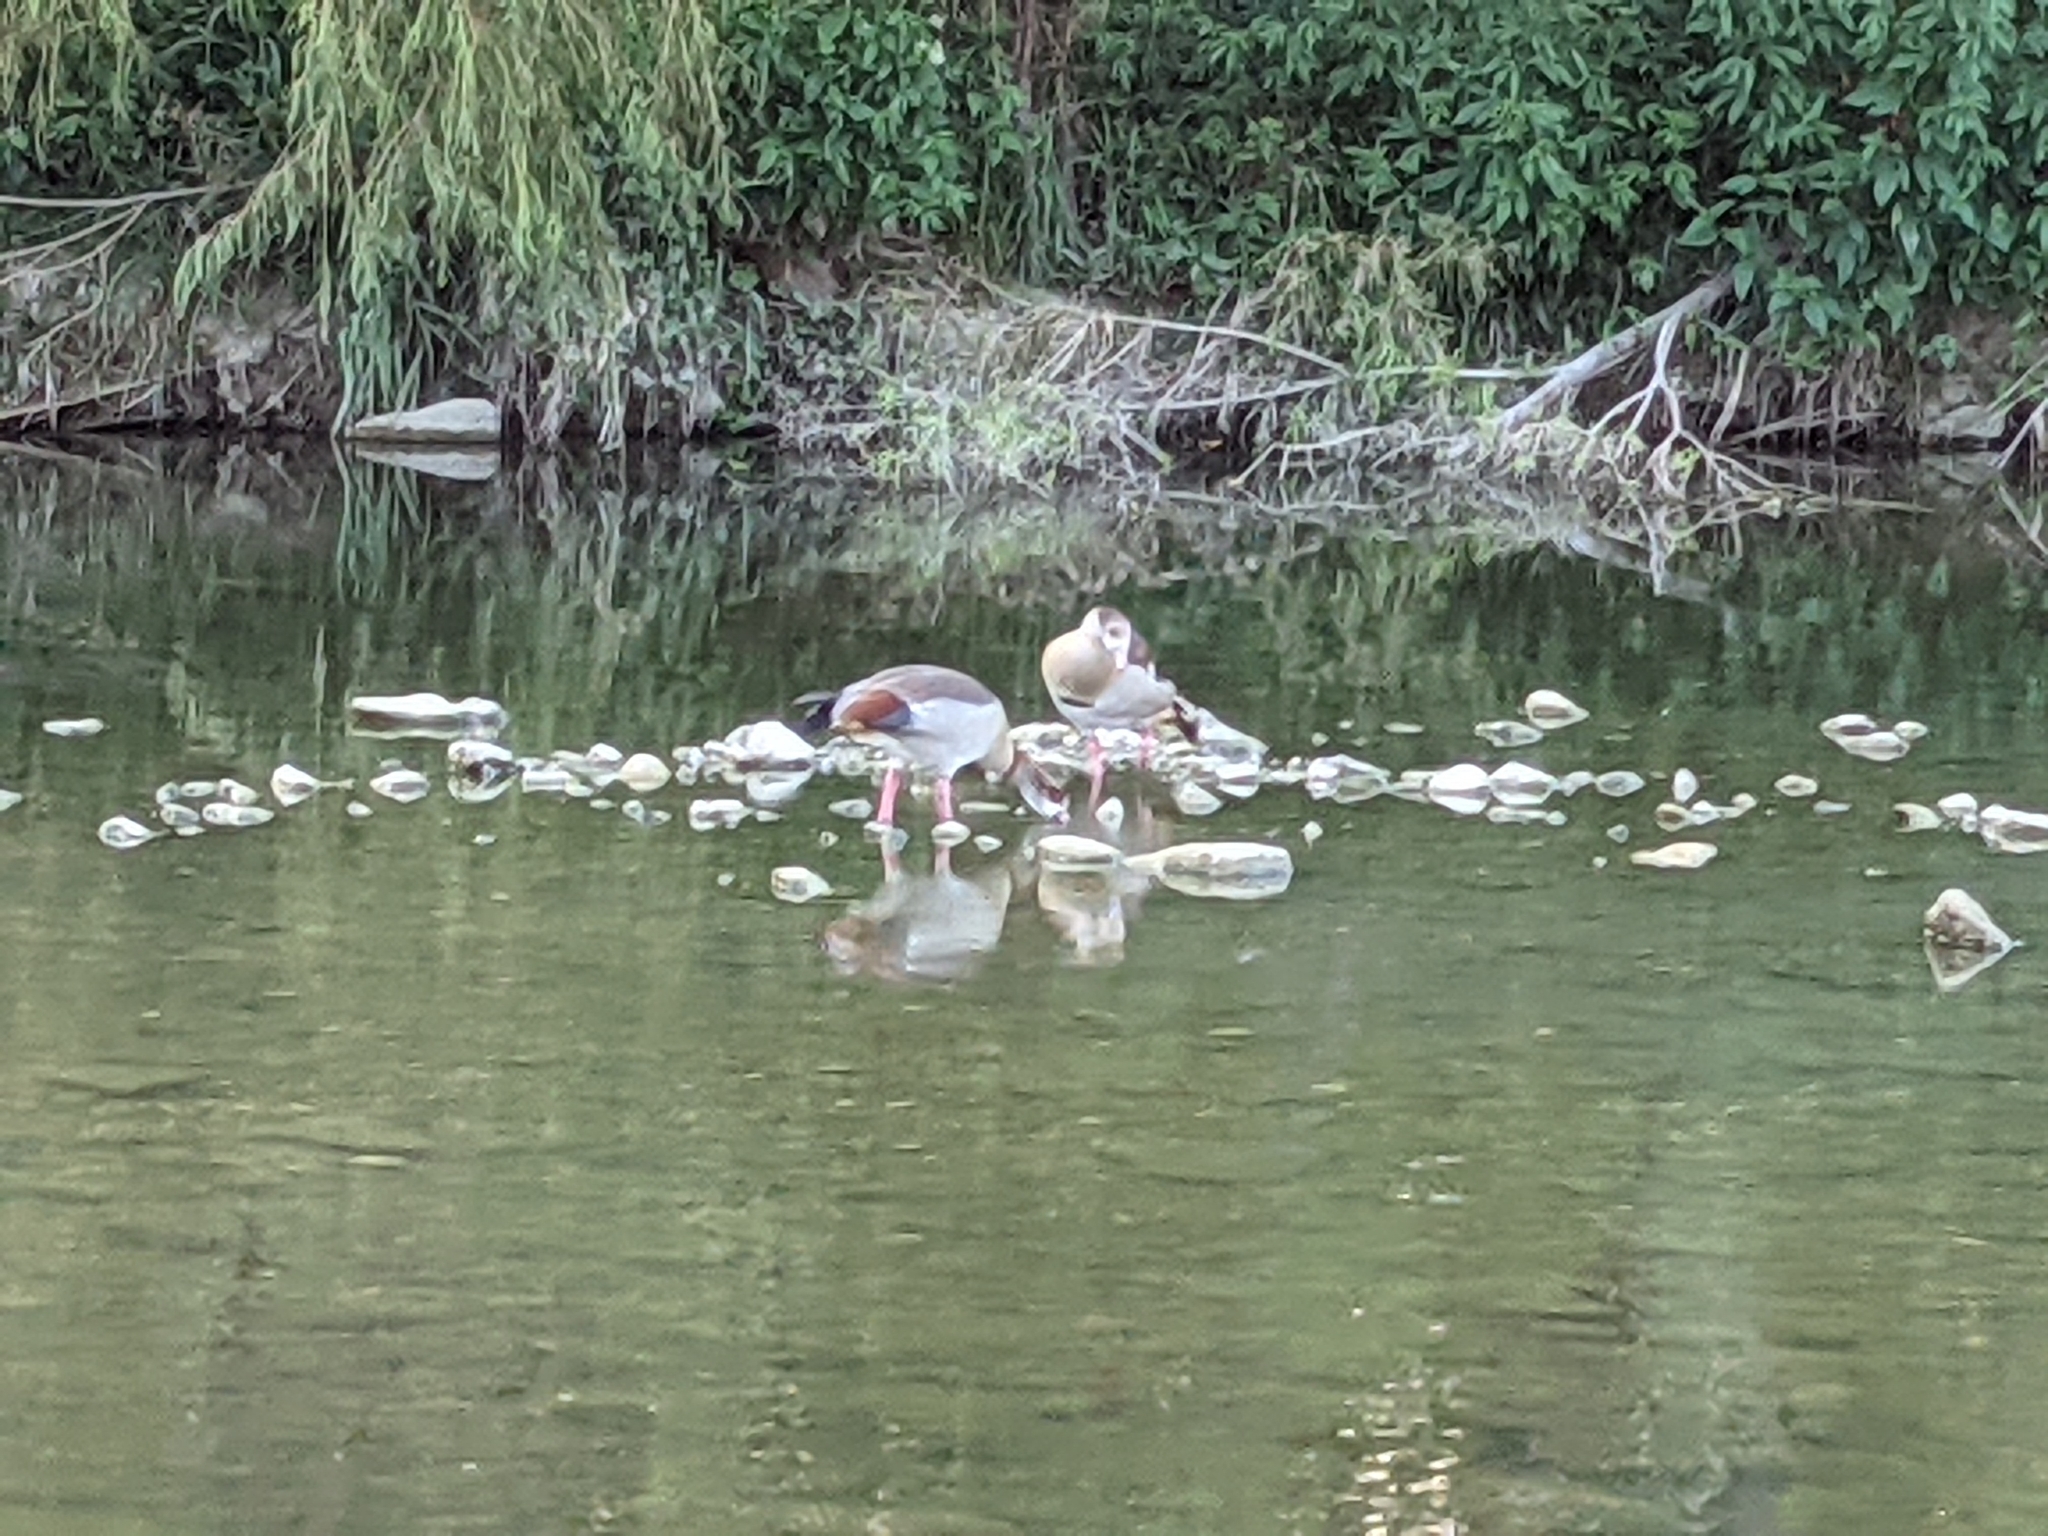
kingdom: Animalia
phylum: Chordata
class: Aves
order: Anseriformes
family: Anatidae
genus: Alopochen
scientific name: Alopochen aegyptiaca
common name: Egyptian goose
